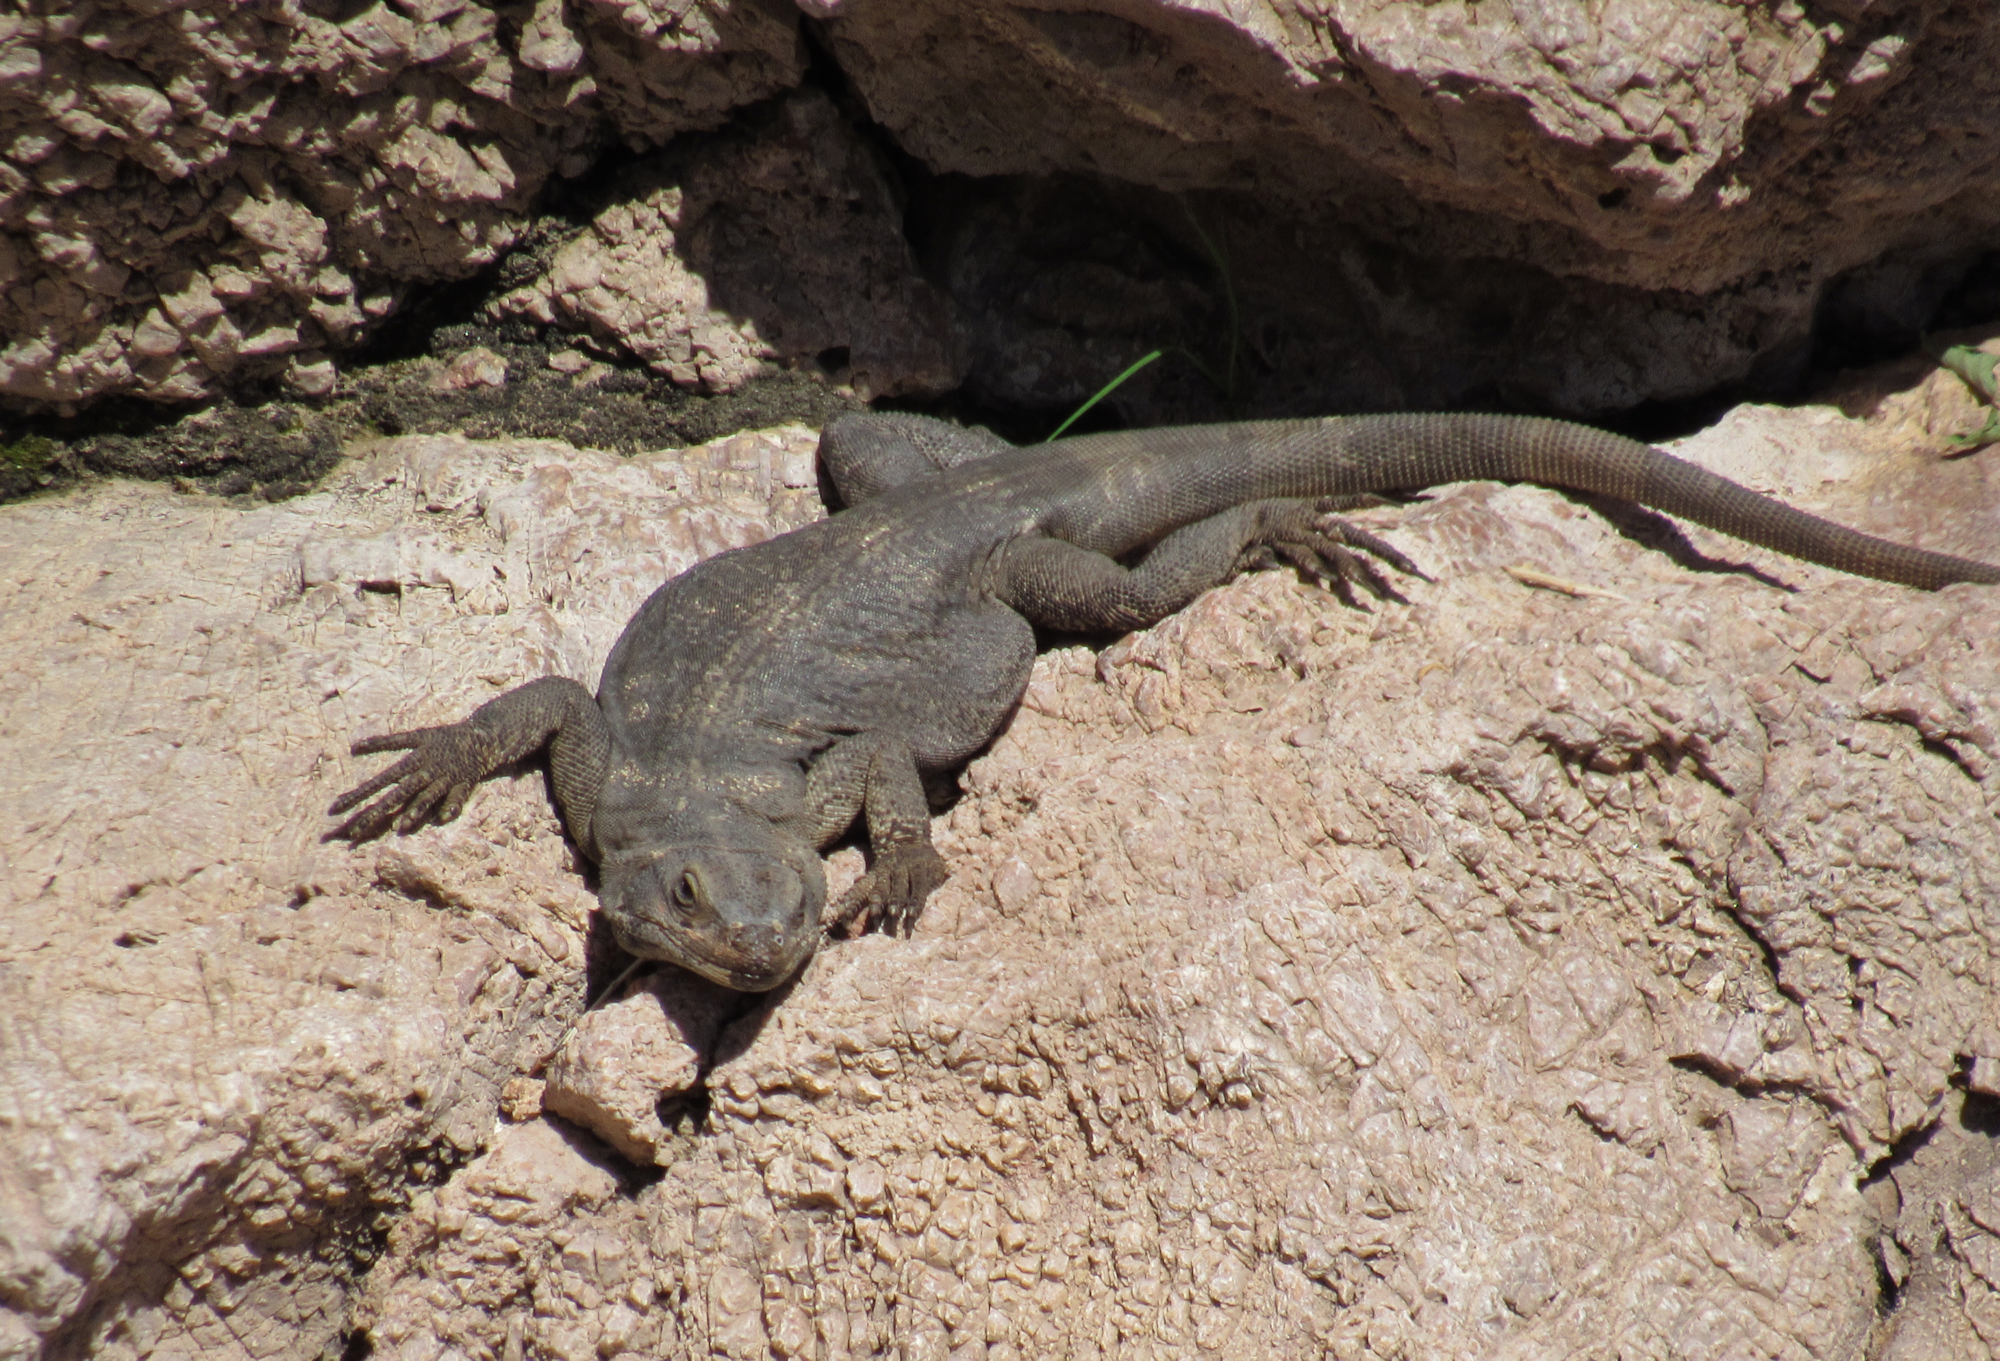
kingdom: Animalia
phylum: Chordata
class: Squamata
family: Iguanidae
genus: Sauromalus
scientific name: Sauromalus ater
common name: Northern chuckwalla
